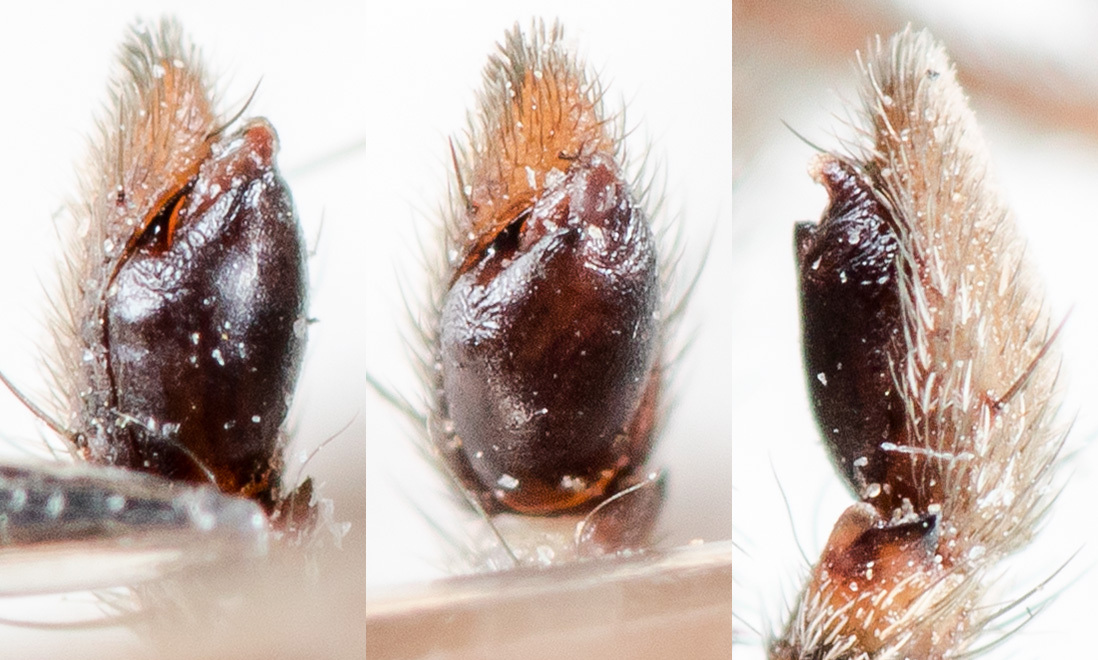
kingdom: Animalia
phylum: Arthropoda
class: Arachnida
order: Araneae
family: Philodromidae
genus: Thanatus
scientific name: Thanatus pictus
